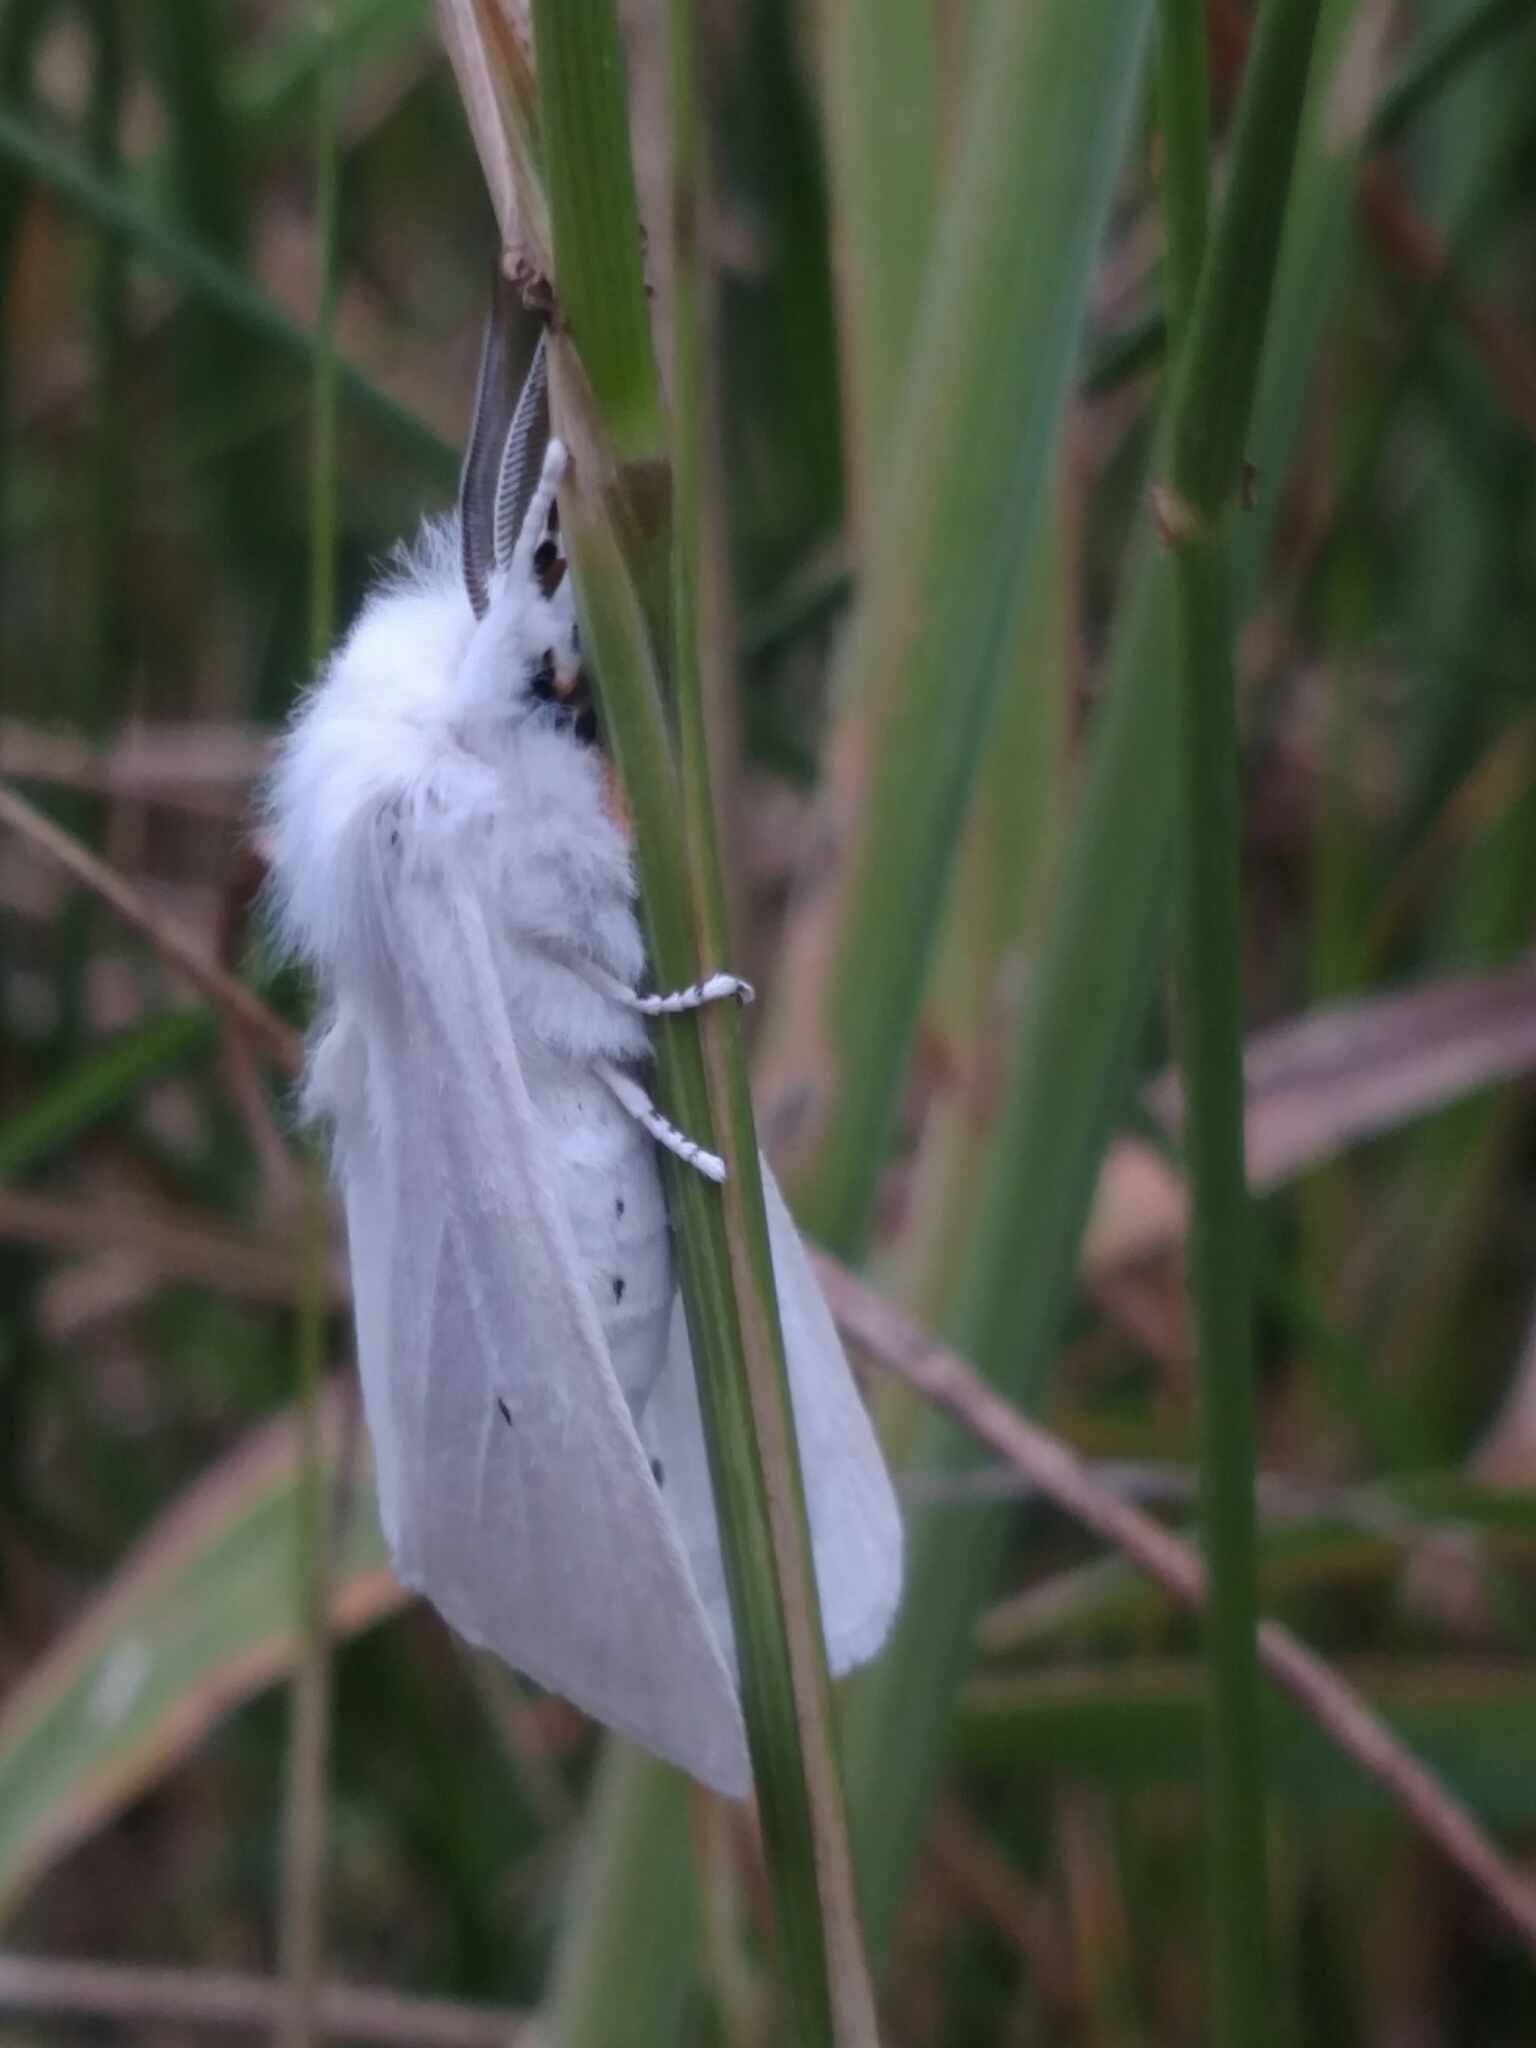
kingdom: Animalia
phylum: Arthropoda
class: Insecta
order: Lepidoptera
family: Erebidae
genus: Spilosoma
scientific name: Spilosoma virginica
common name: Virginia tiger moth
